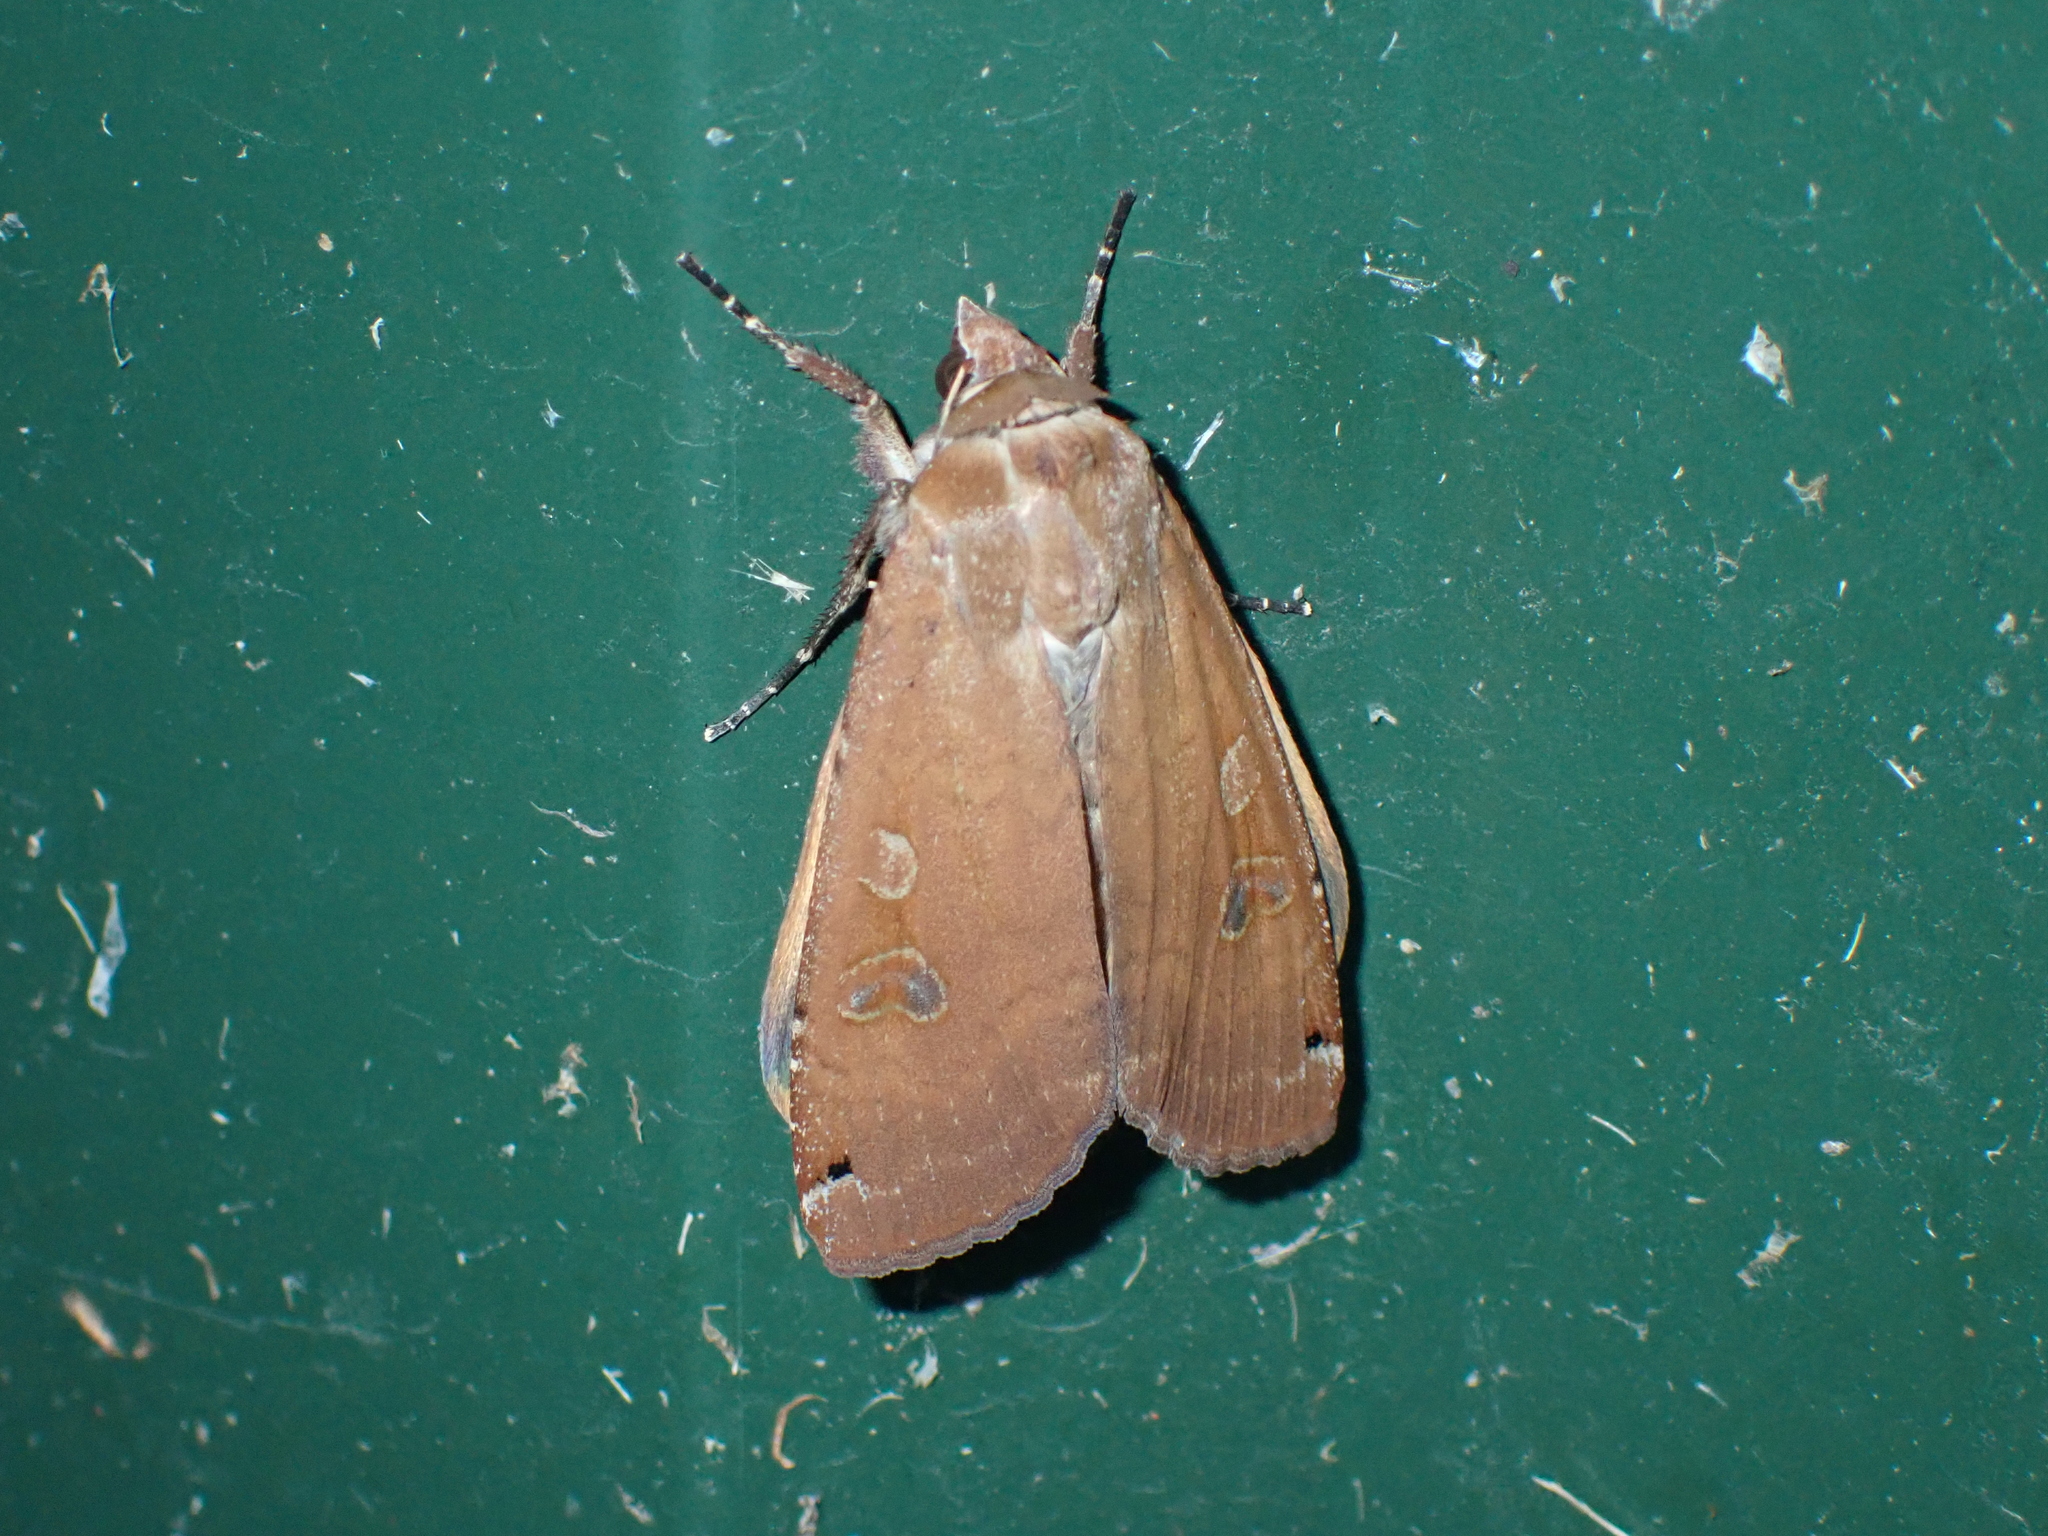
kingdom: Animalia
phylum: Arthropoda
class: Insecta
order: Lepidoptera
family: Noctuidae
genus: Noctua
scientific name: Noctua pronuba
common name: Large yellow underwing
